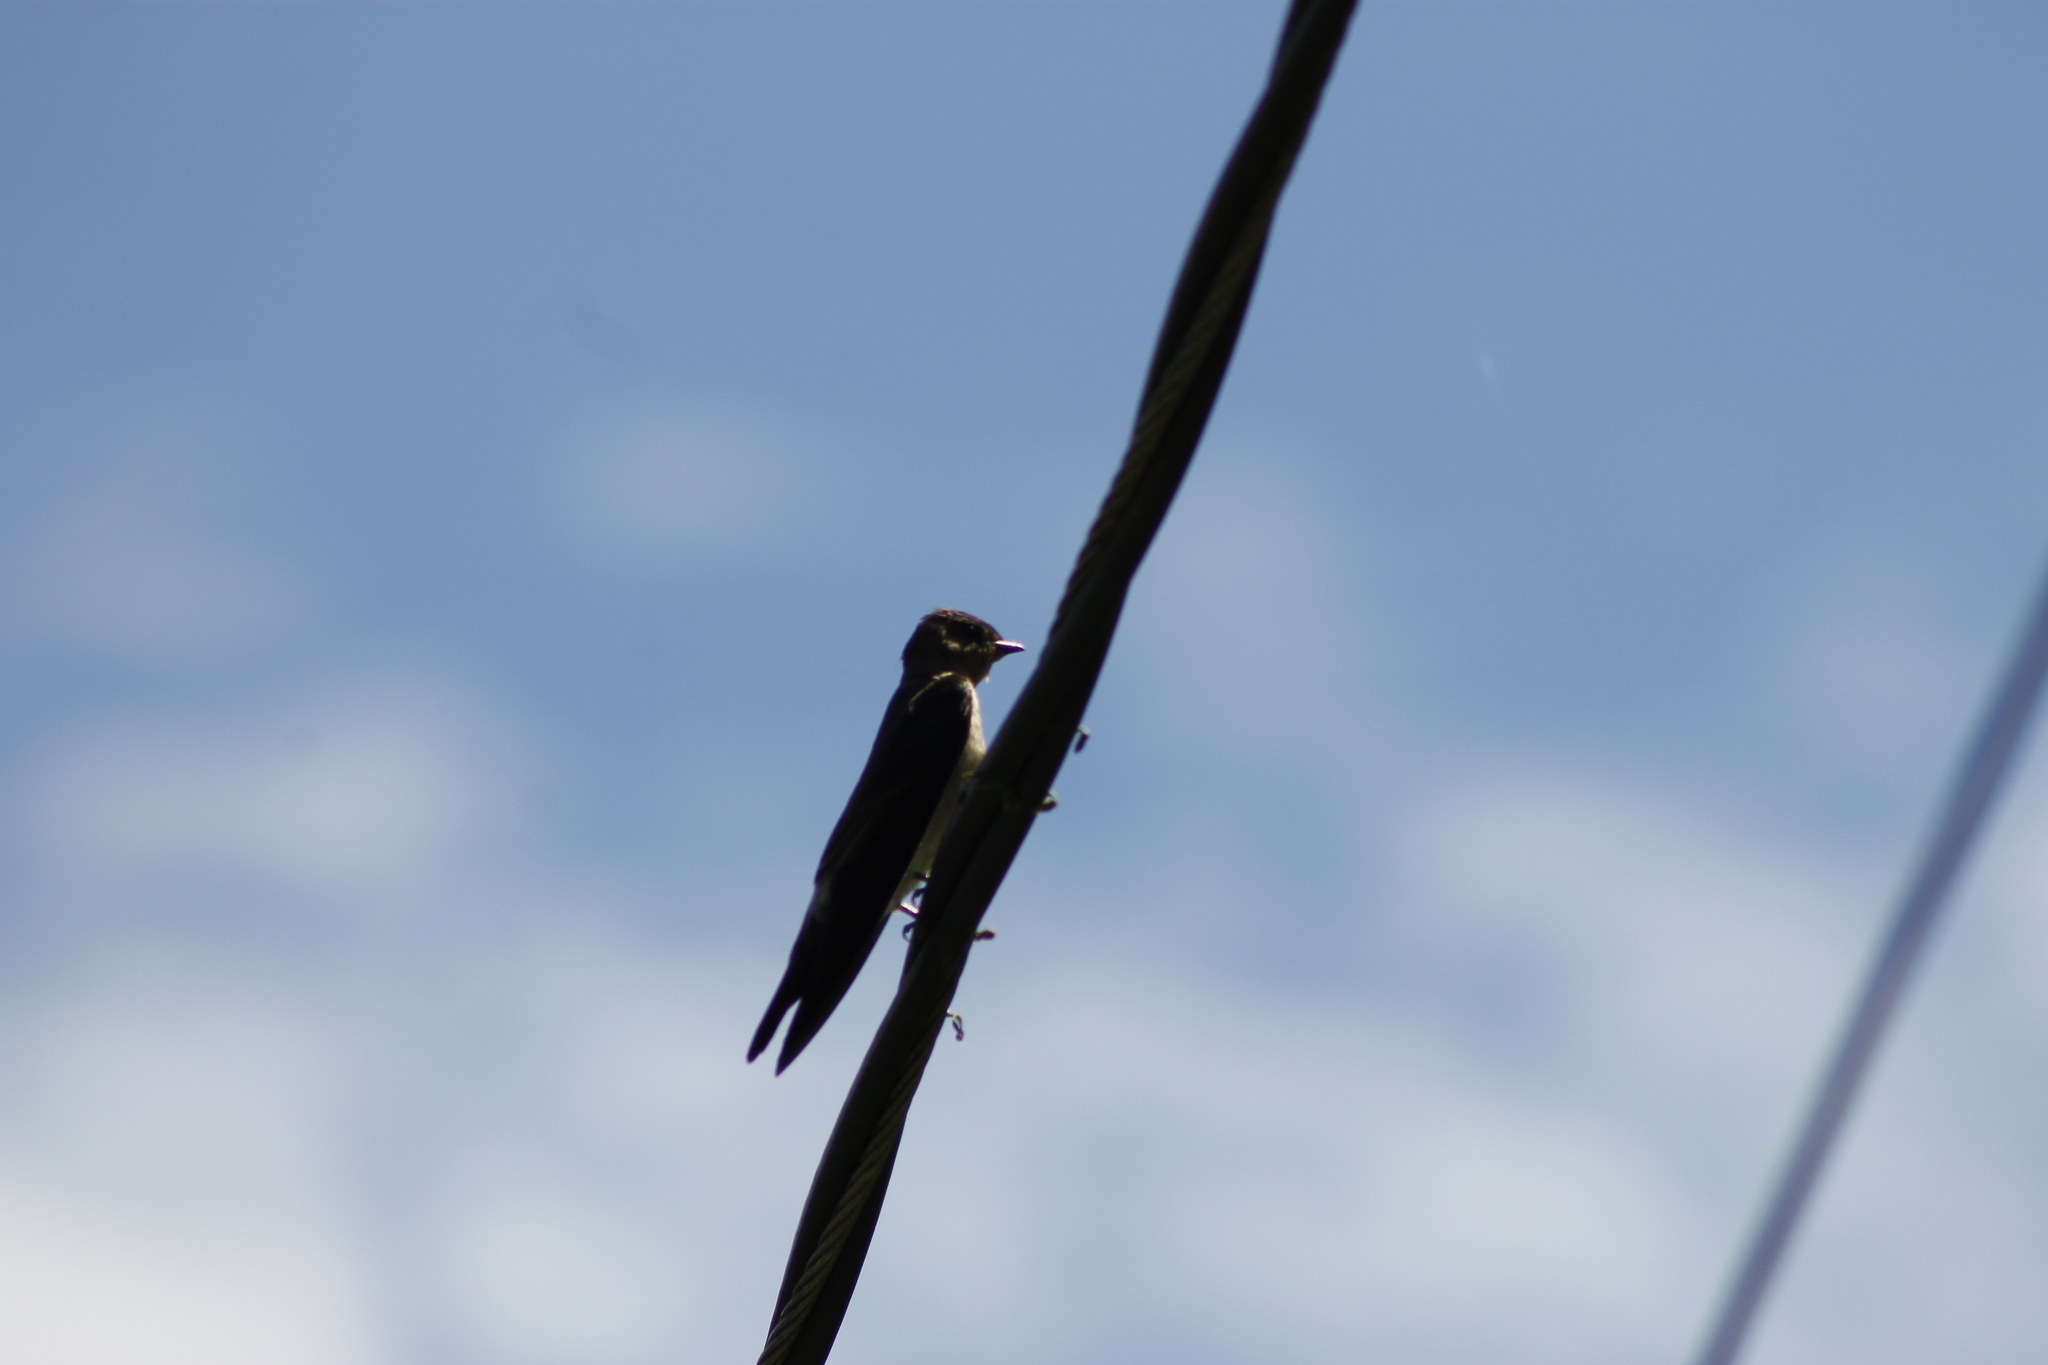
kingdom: Animalia
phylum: Chordata
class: Aves
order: Passeriformes
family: Hirundinidae
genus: Stelgidopteryx
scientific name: Stelgidopteryx ruficollis
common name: Southern rough-winged swallow
